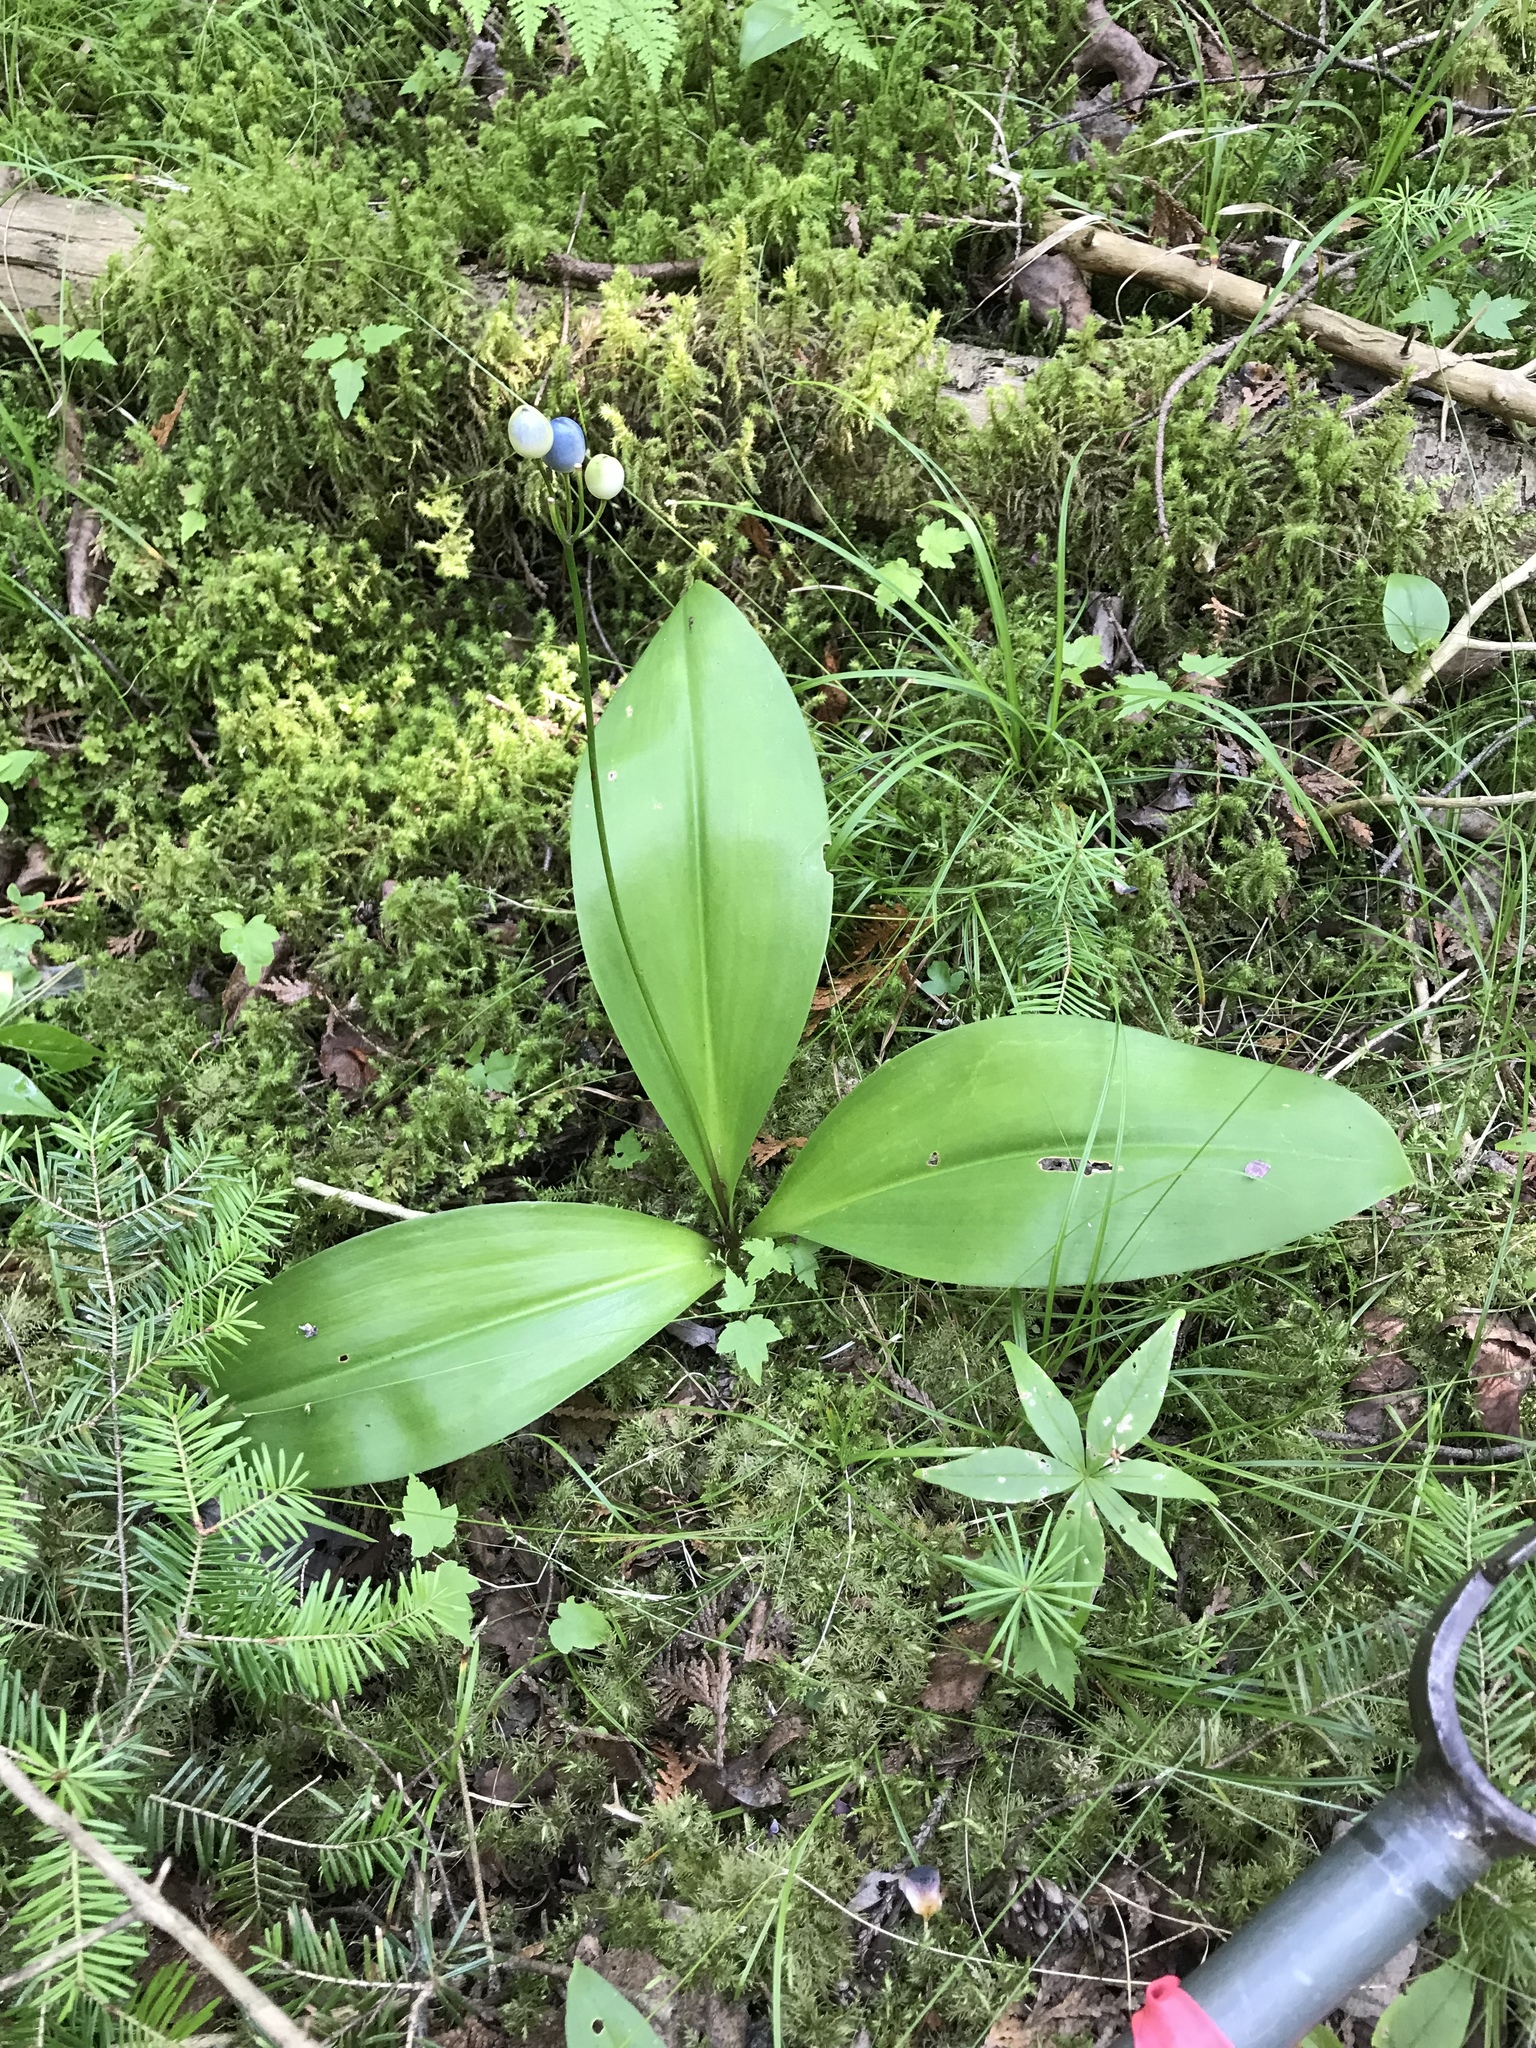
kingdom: Plantae
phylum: Tracheophyta
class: Liliopsida
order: Liliales
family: Liliaceae
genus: Clintonia
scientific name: Clintonia borealis
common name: Yellow clintonia
